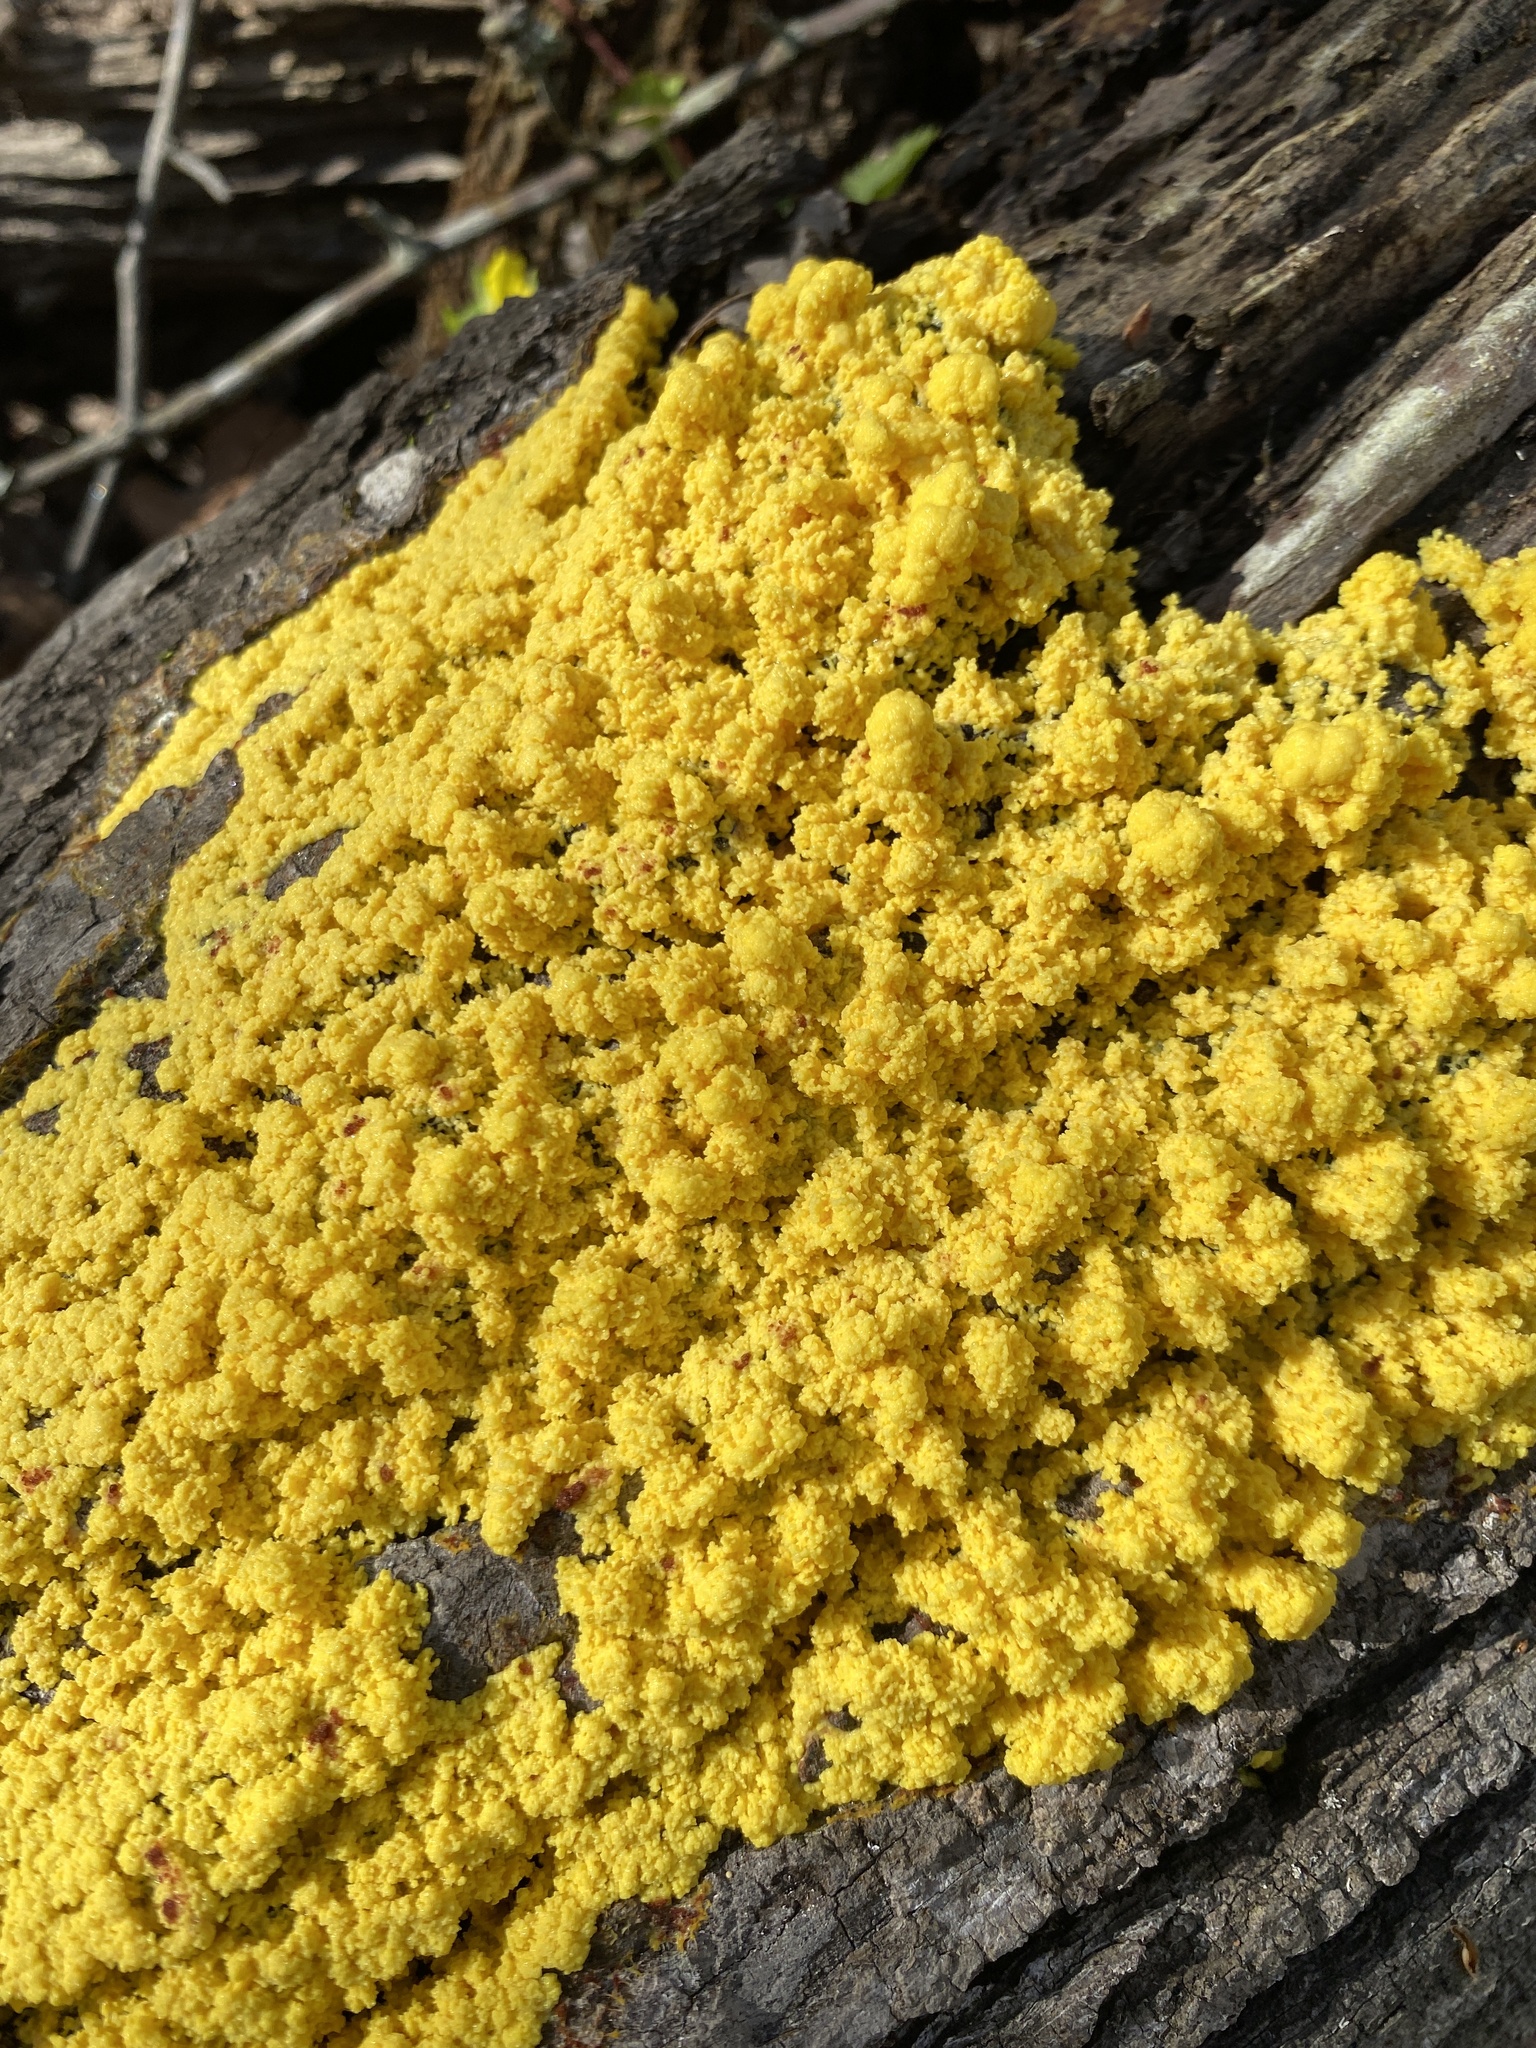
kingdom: Protozoa
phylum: Mycetozoa
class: Myxomycetes
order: Physarales
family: Physaraceae
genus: Fuligo
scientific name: Fuligo septica
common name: Dog vomit slime mold
